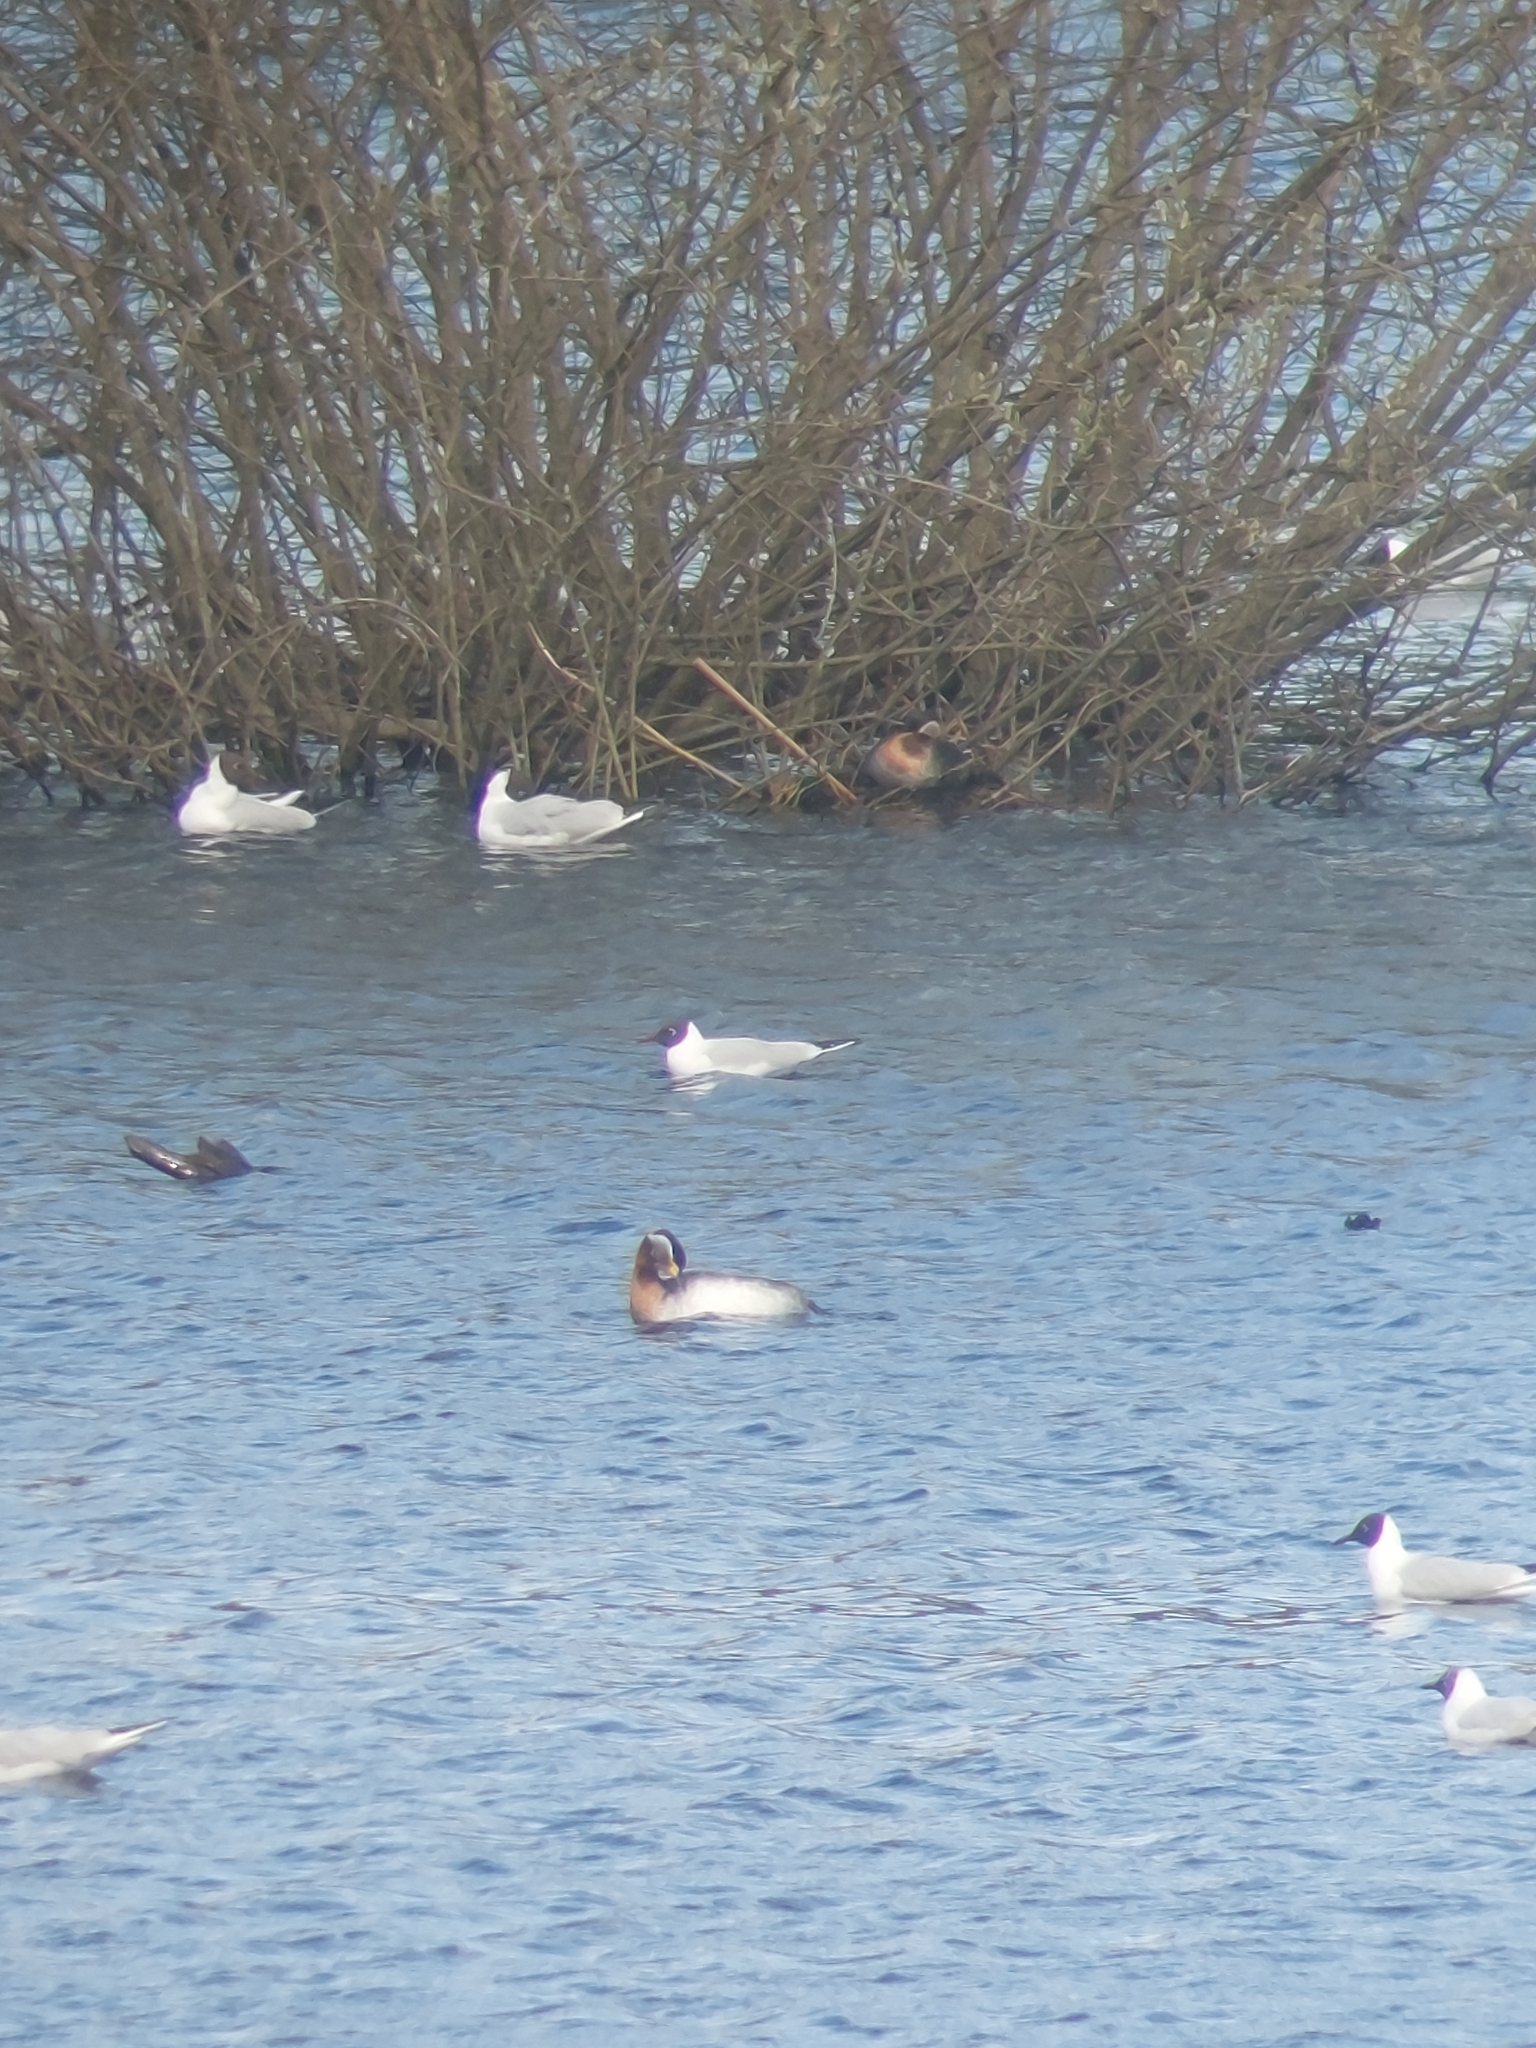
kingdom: Animalia
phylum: Chordata
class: Aves
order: Podicipediformes
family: Podicipedidae
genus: Podiceps
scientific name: Podiceps grisegena
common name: Red-necked grebe
